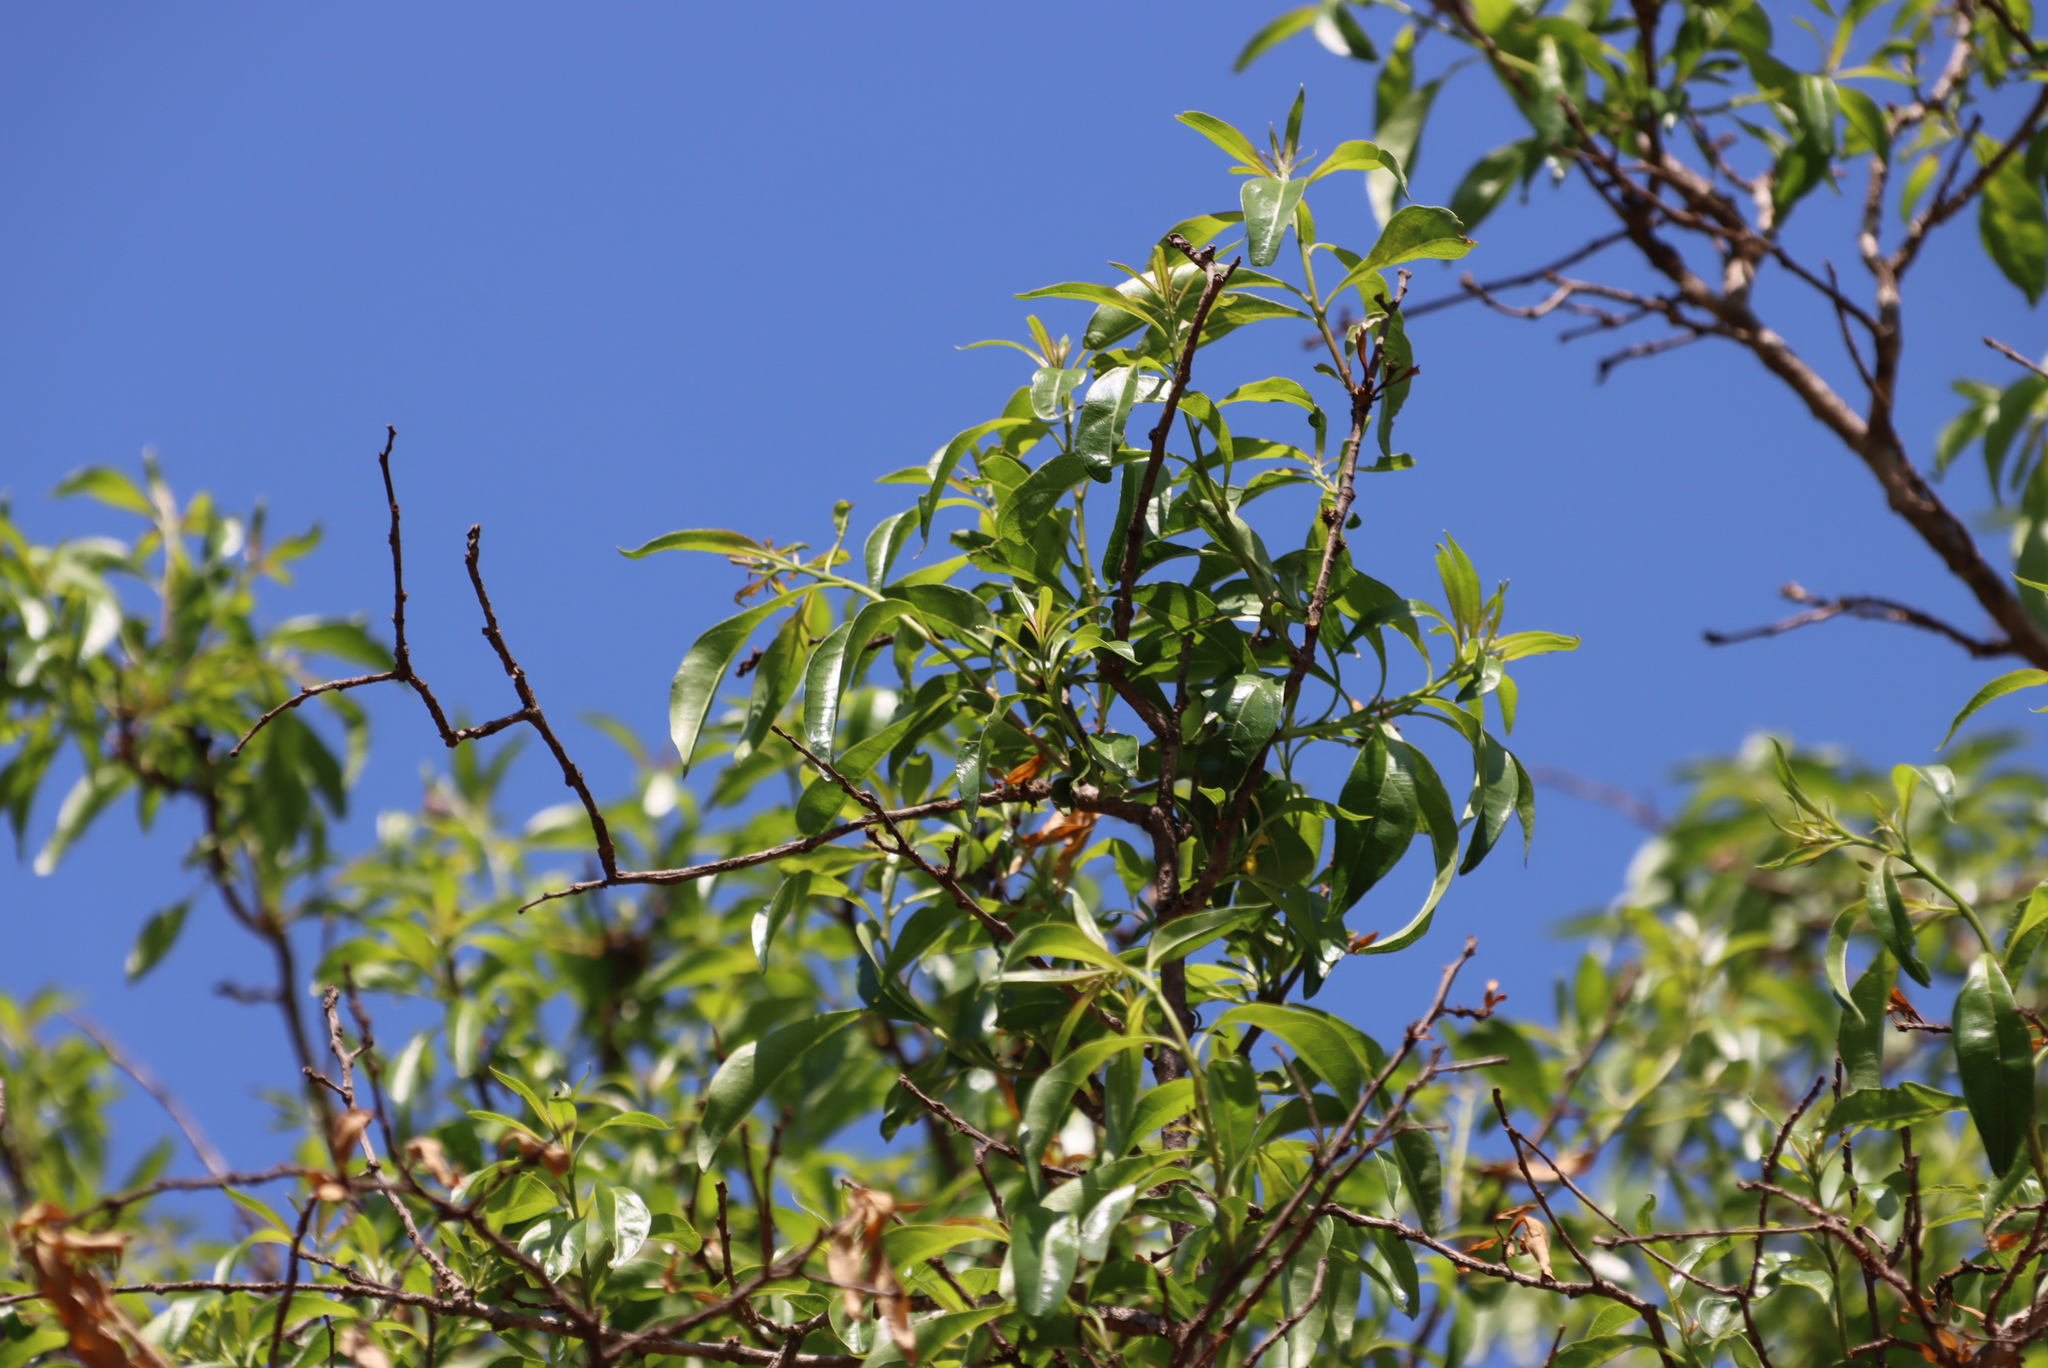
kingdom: Plantae
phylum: Tracheophyta
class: Magnoliopsida
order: Myrtales
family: Myrtaceae
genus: Heteropyxis
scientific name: Heteropyxis natalensis
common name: Lavender tree
